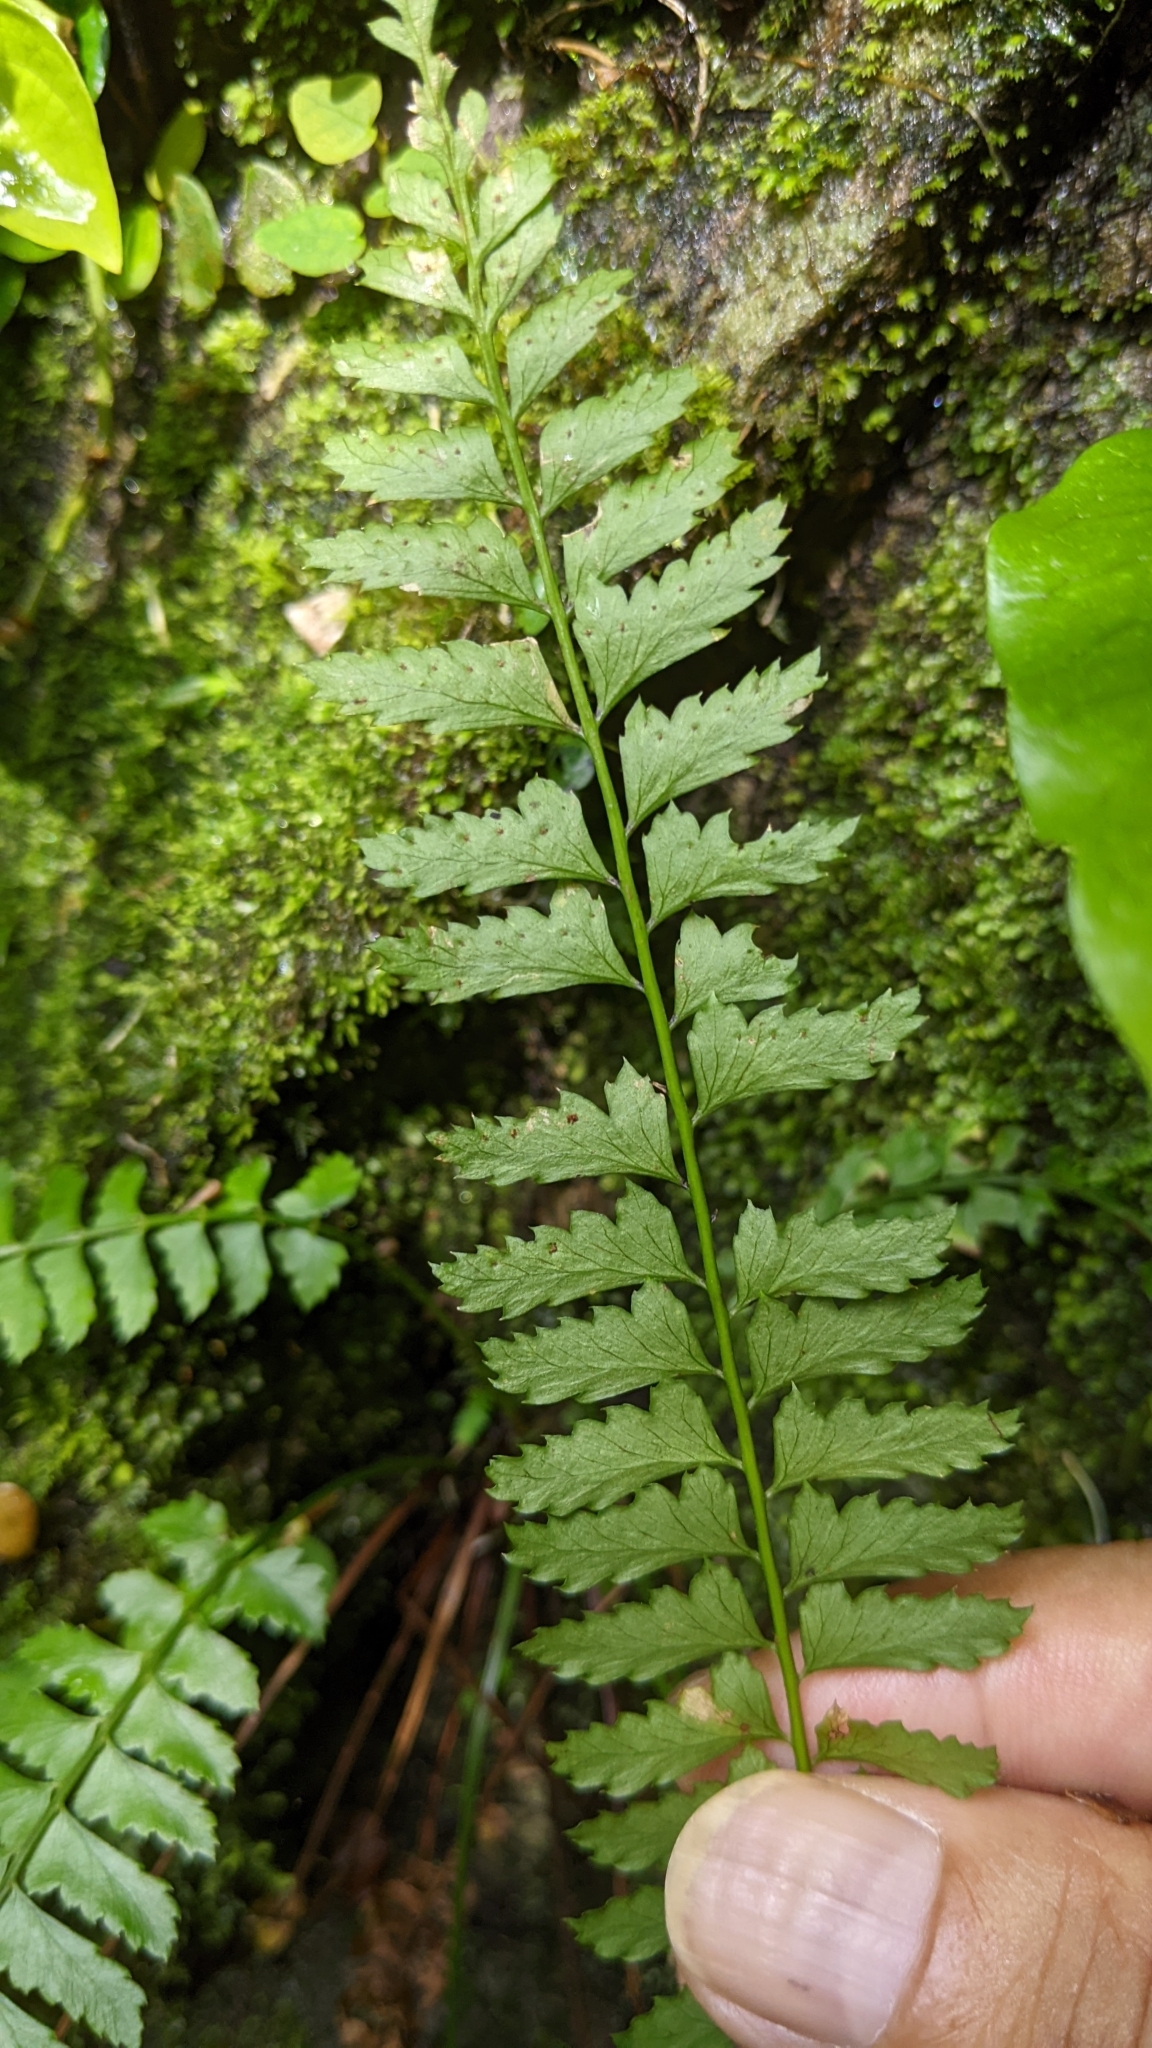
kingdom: Plantae
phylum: Tracheophyta
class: Polypodiopsida
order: Polypodiales
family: Dryopteridaceae
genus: Polystichum
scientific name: Polystichum hancockii
